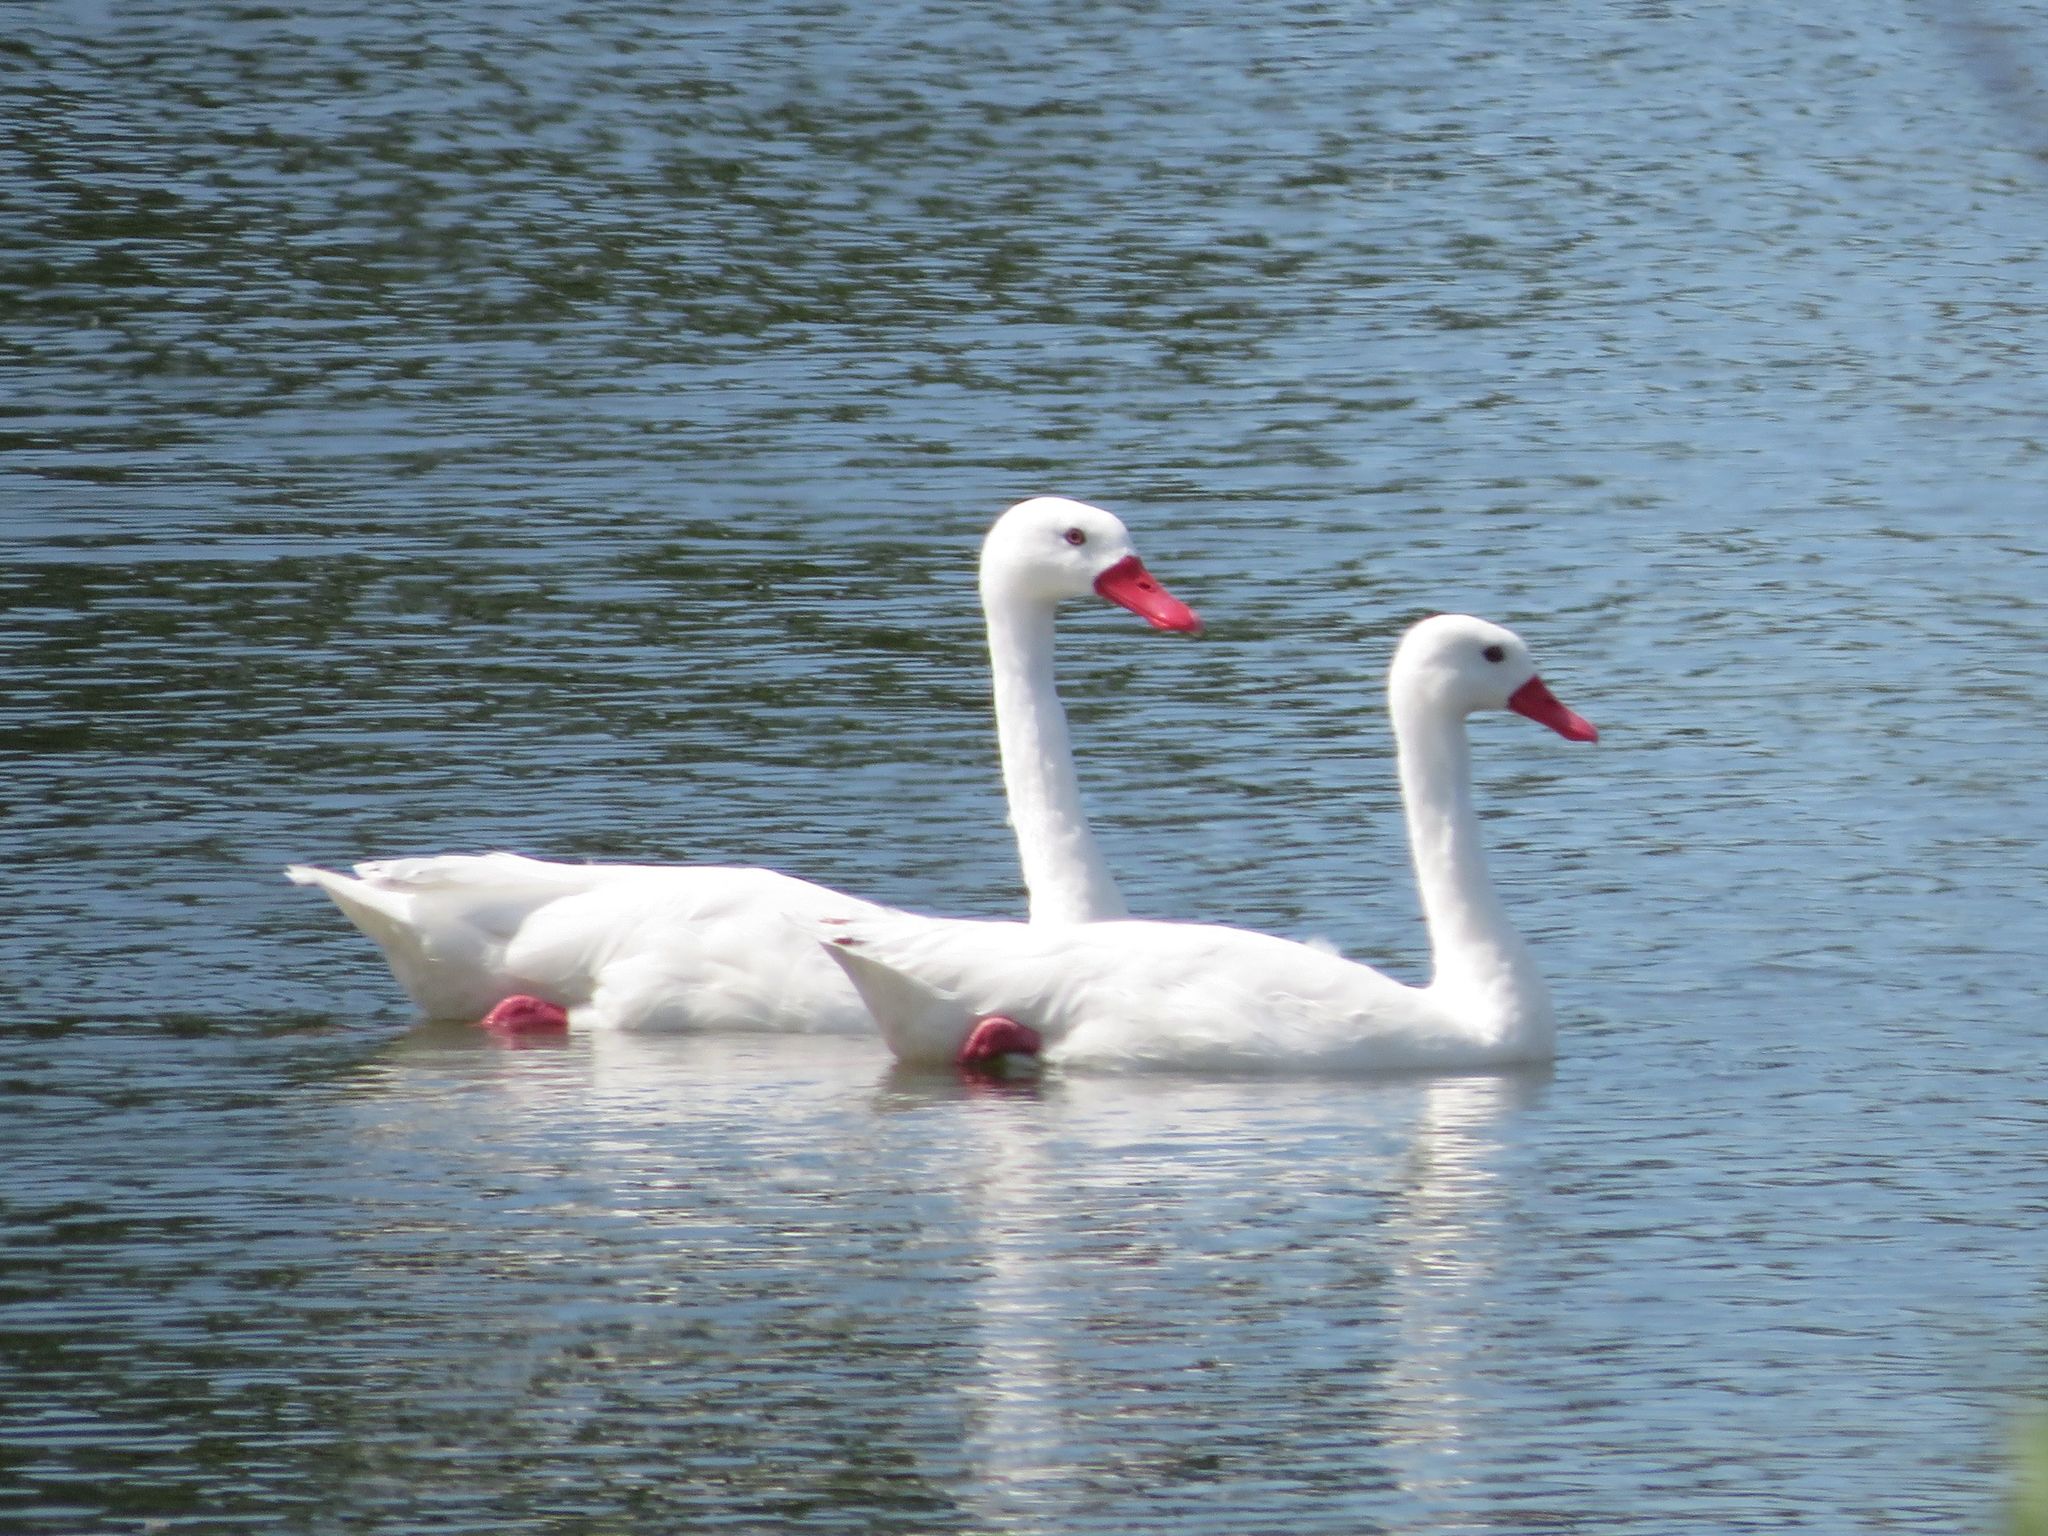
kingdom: Animalia
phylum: Chordata
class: Aves
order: Anseriformes
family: Anatidae
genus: Coscoroba
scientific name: Coscoroba coscoroba
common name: Coscoroba swan
